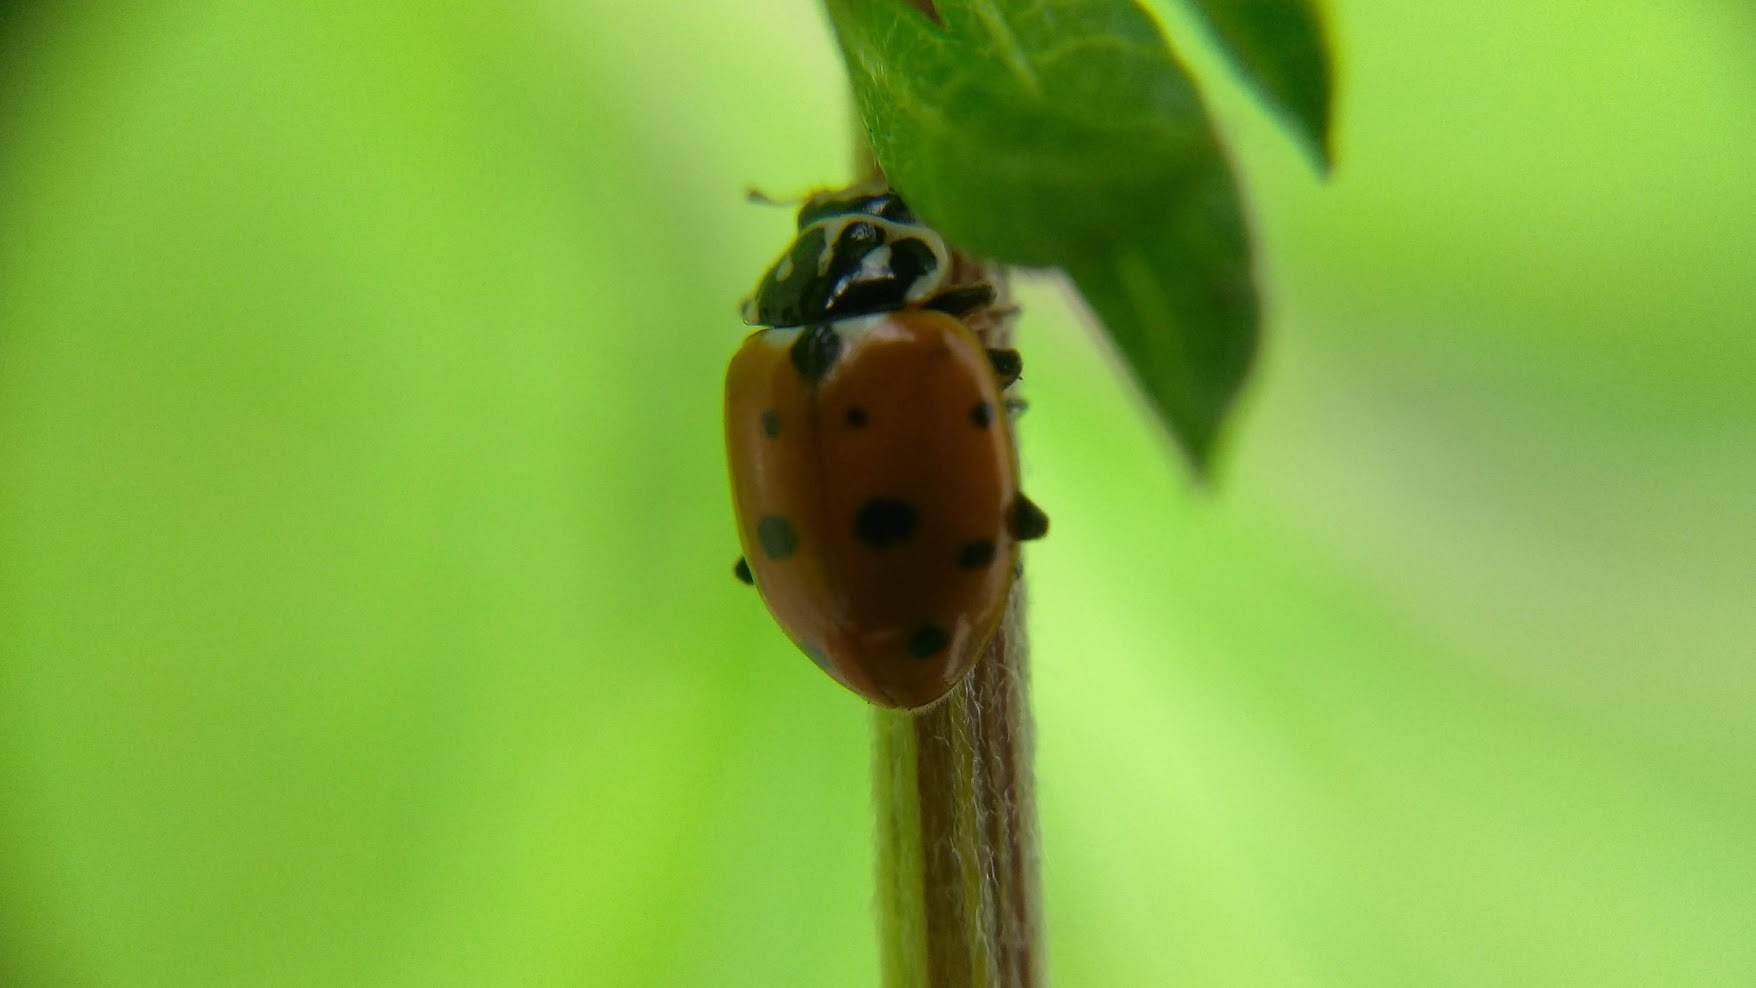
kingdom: Animalia
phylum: Arthropoda
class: Insecta
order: Coleoptera
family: Coccinellidae
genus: Hippodamia
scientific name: Hippodamia variegata
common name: Ladybird beetle
